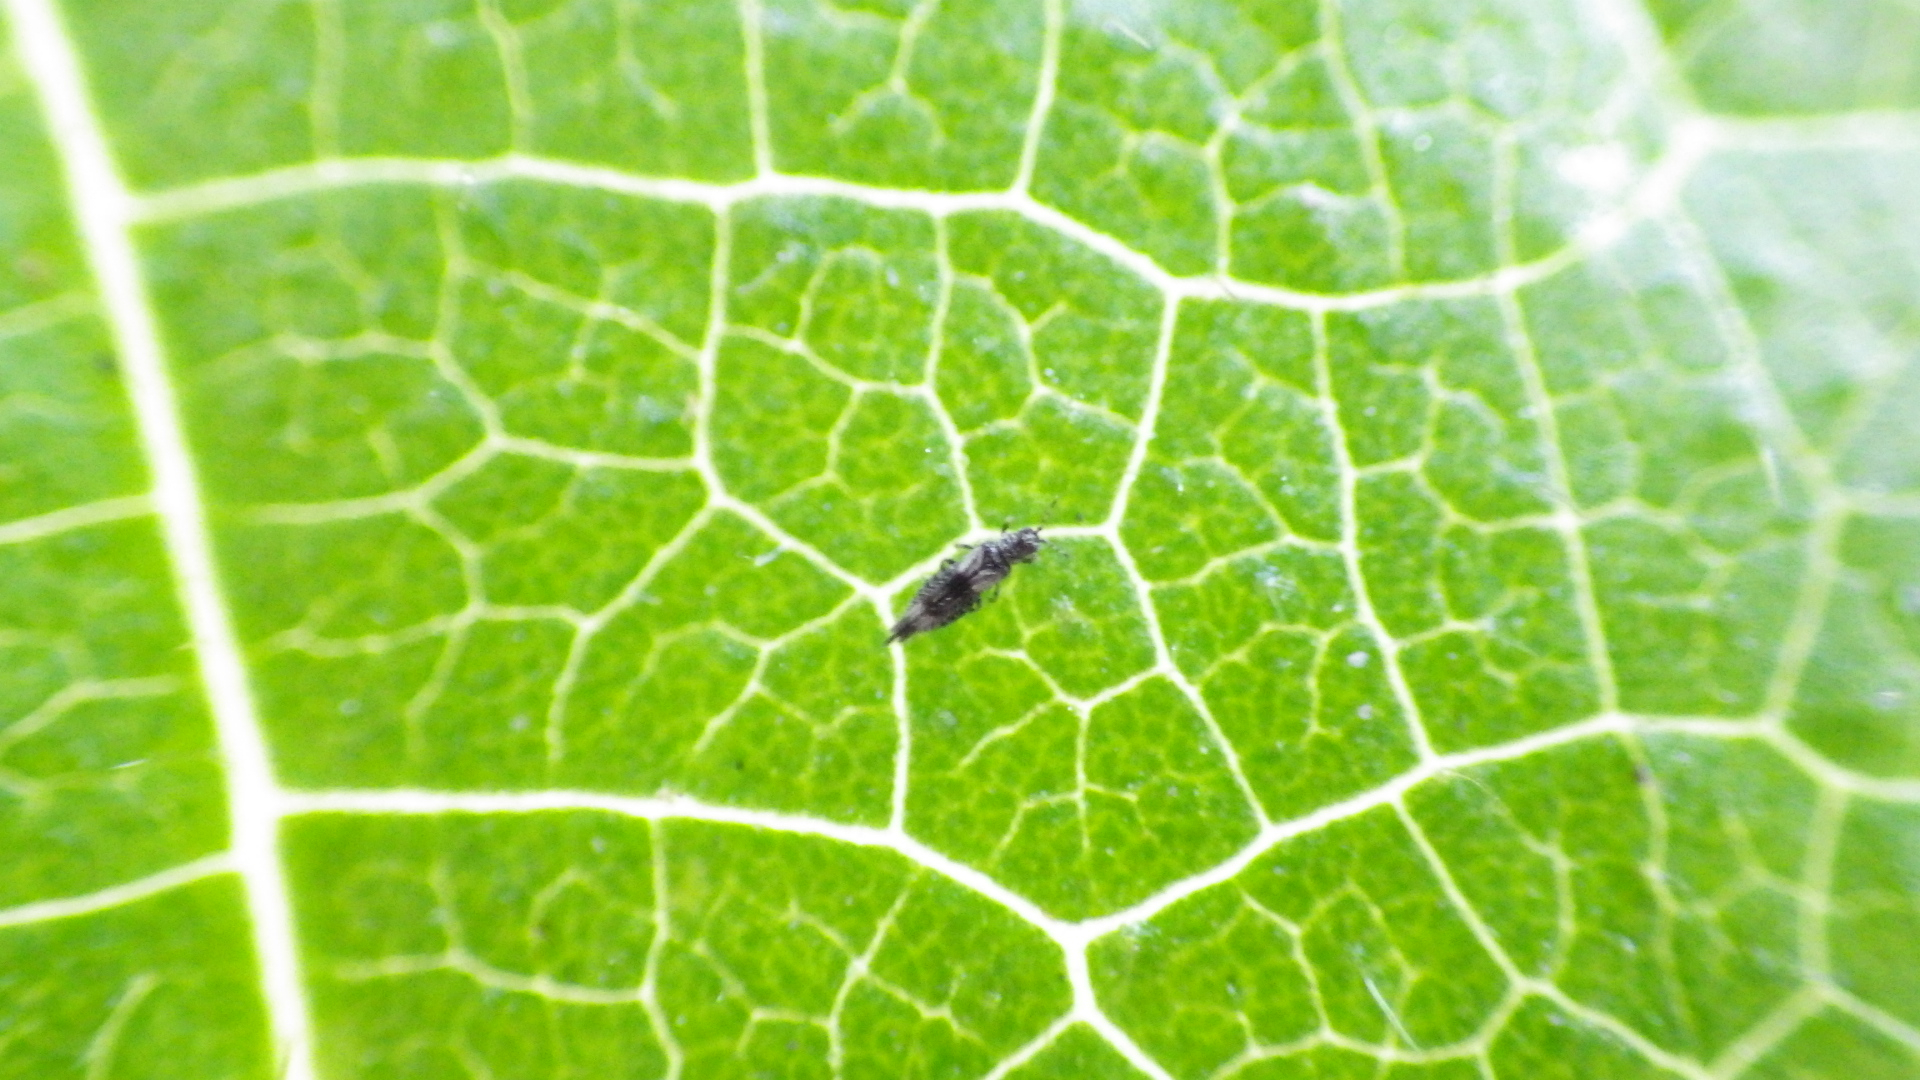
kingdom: Animalia
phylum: Arthropoda
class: Insecta
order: Thysanoptera
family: Thripidae
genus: Caliothrips
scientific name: Caliothrips fasciatus
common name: Common thrip
